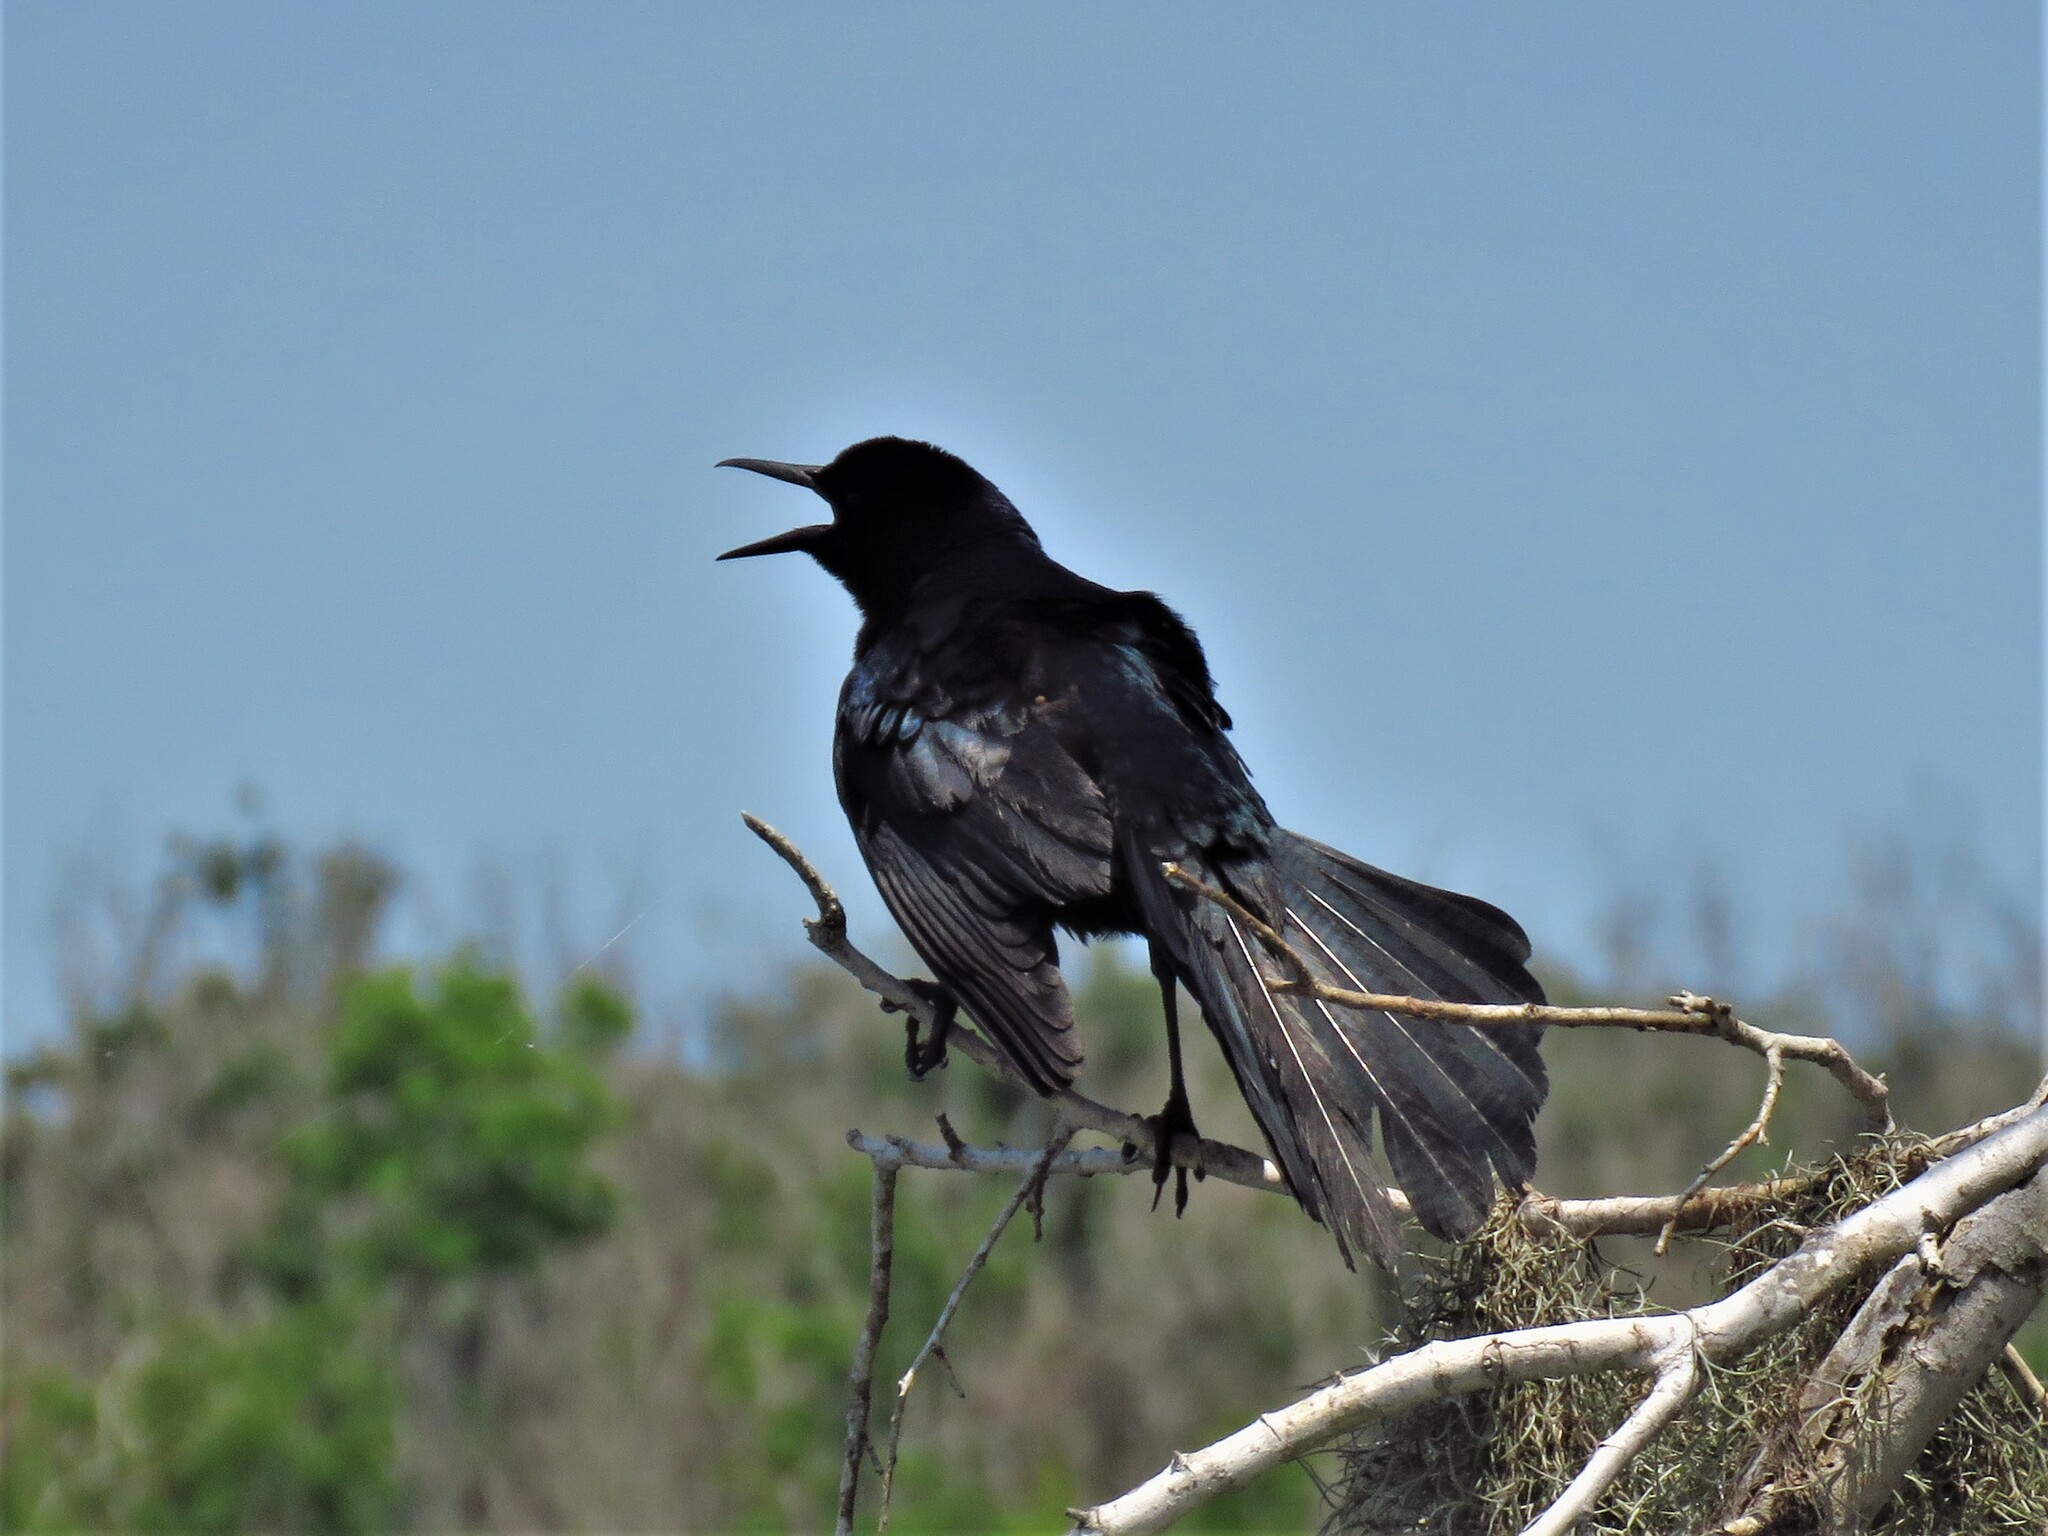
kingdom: Animalia
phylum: Chordata
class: Aves
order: Passeriformes
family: Icteridae
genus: Quiscalus
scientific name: Quiscalus major
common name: Boat-tailed grackle
